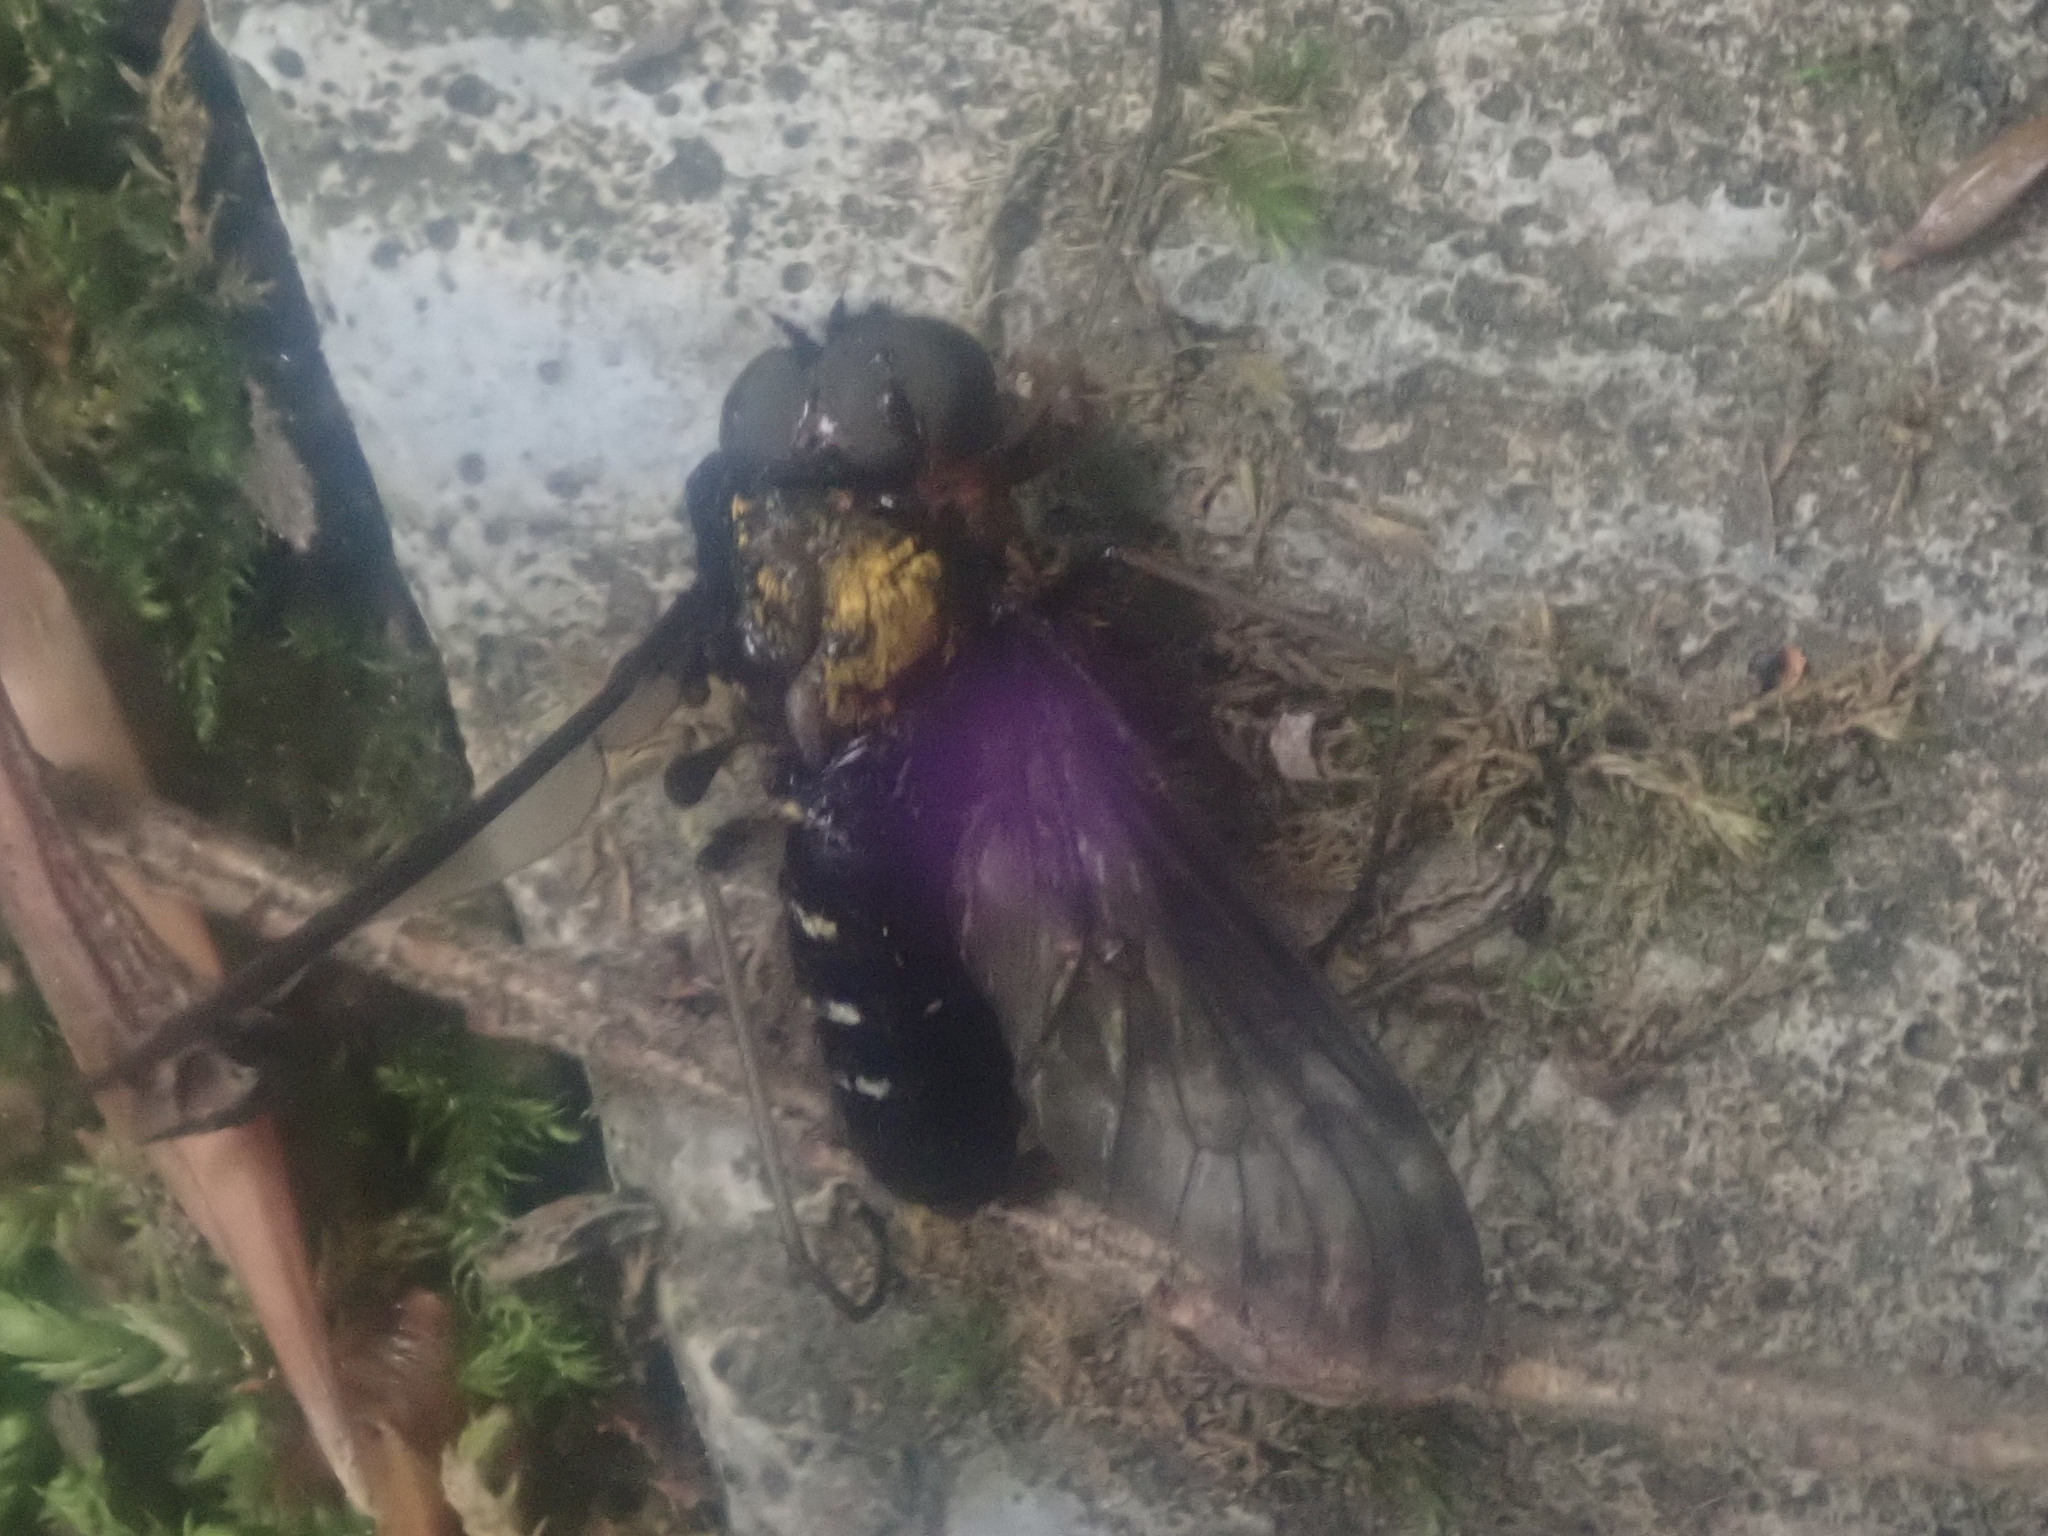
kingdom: Animalia
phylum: Arthropoda
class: Insecta
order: Diptera
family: Rhagionidae
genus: Chrysopilus
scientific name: Chrysopilus thoracicus
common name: Golden-backed snipe fly
